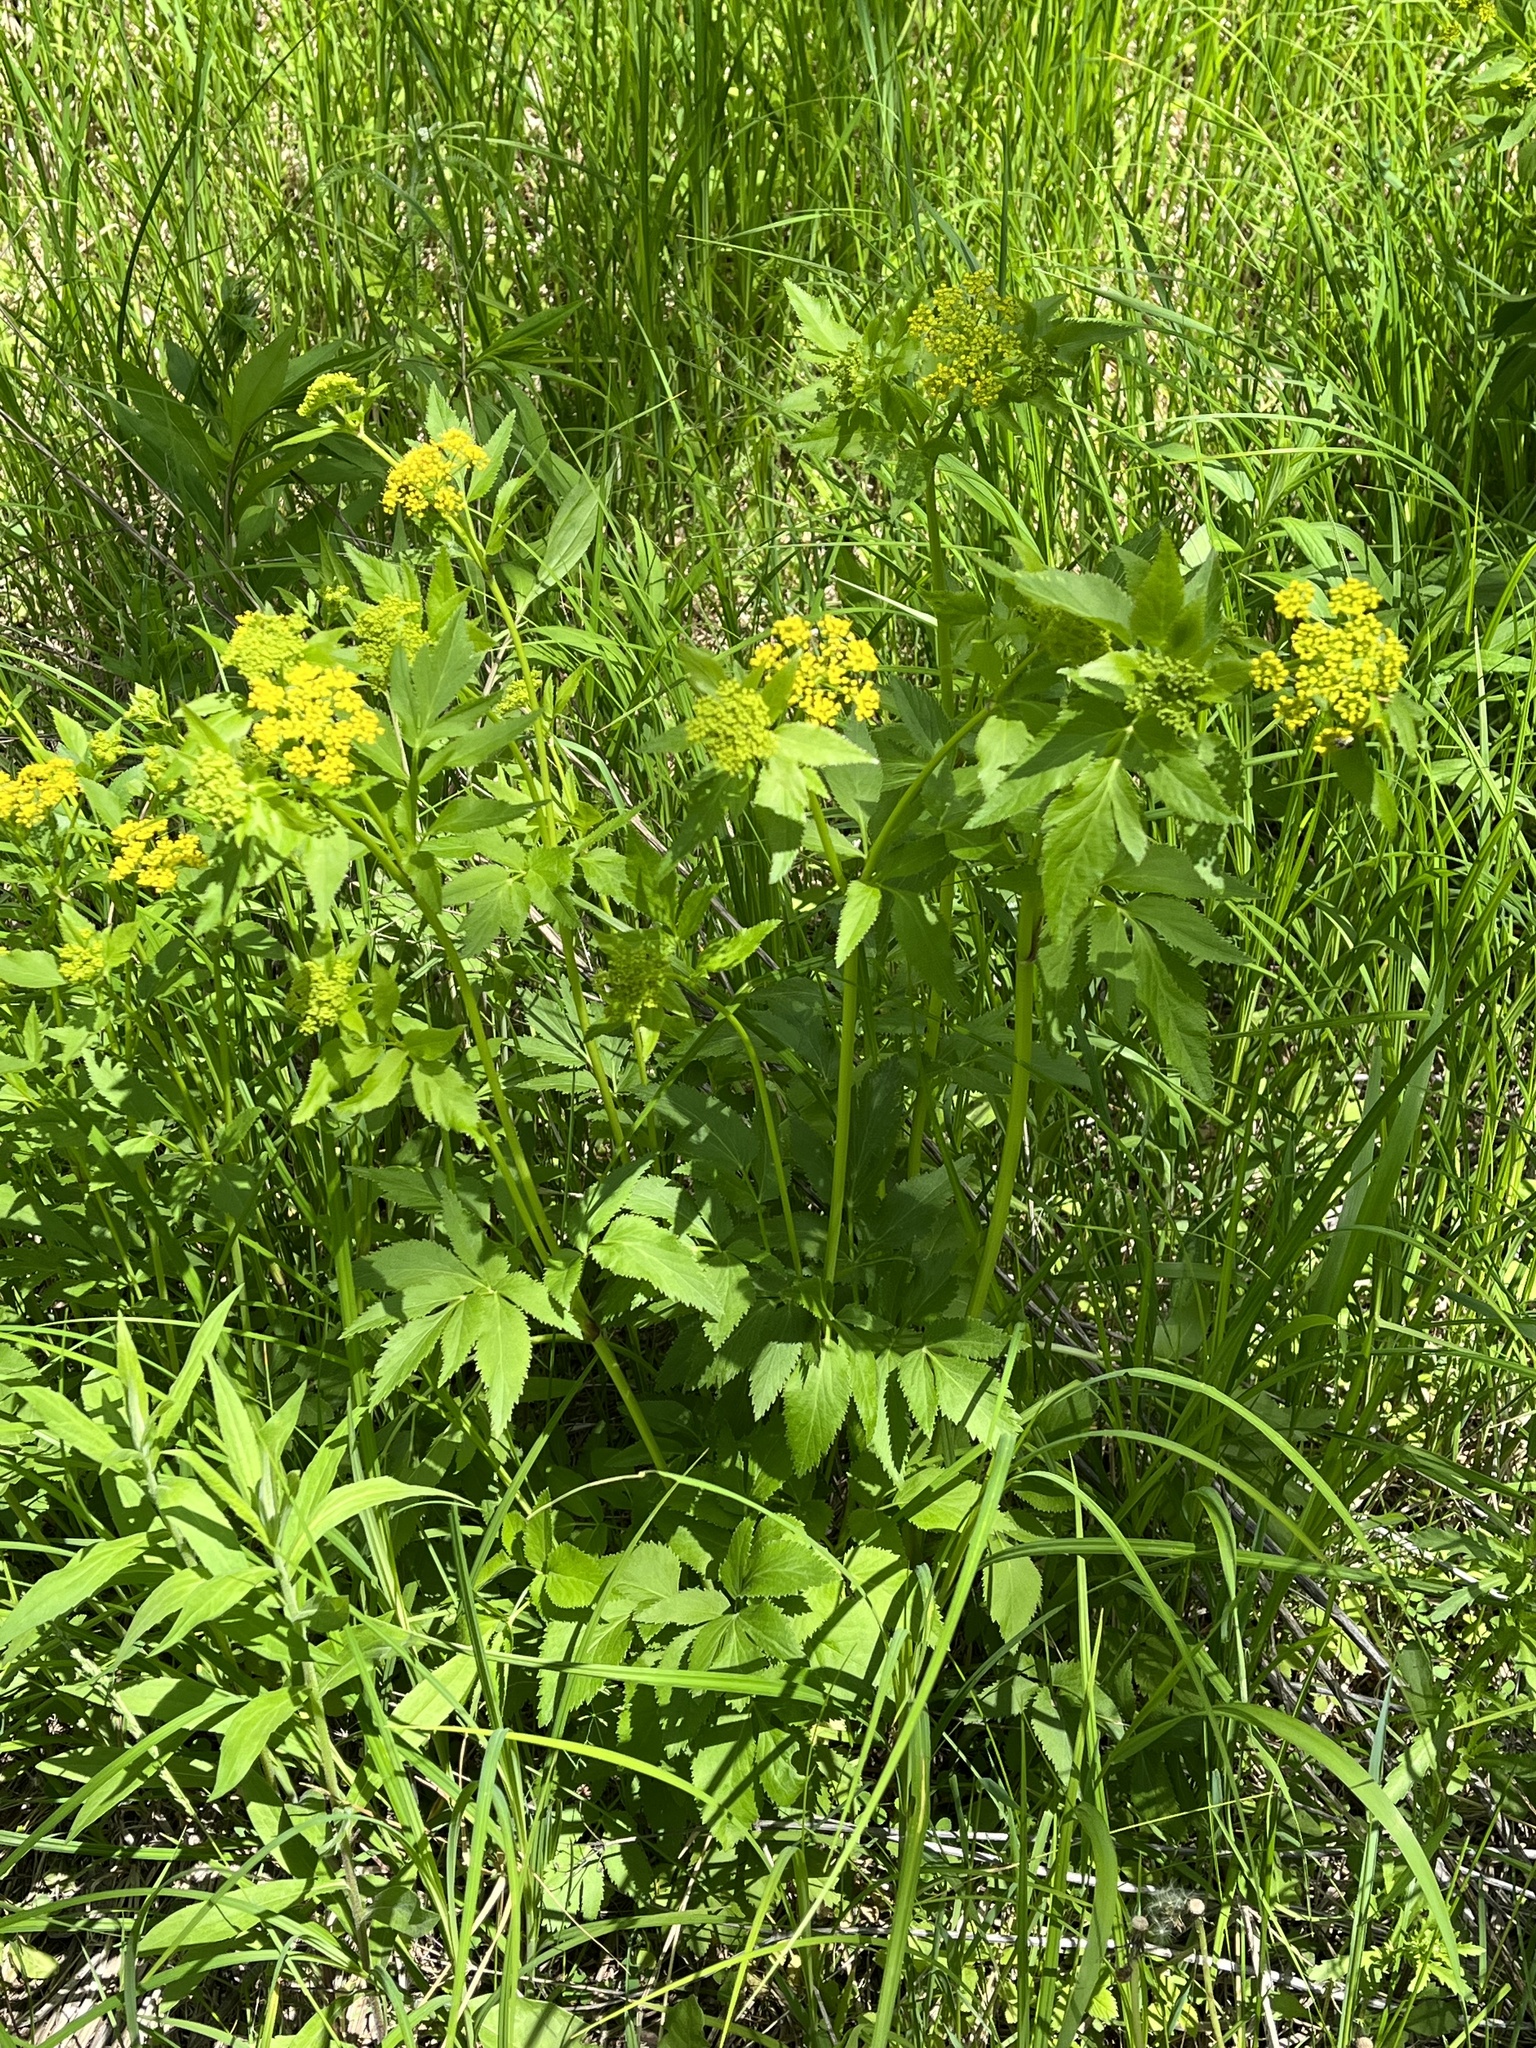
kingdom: Plantae
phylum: Tracheophyta
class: Magnoliopsida
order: Apiales
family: Apiaceae
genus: Zizia
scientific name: Zizia aurea
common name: Golden alexanders
